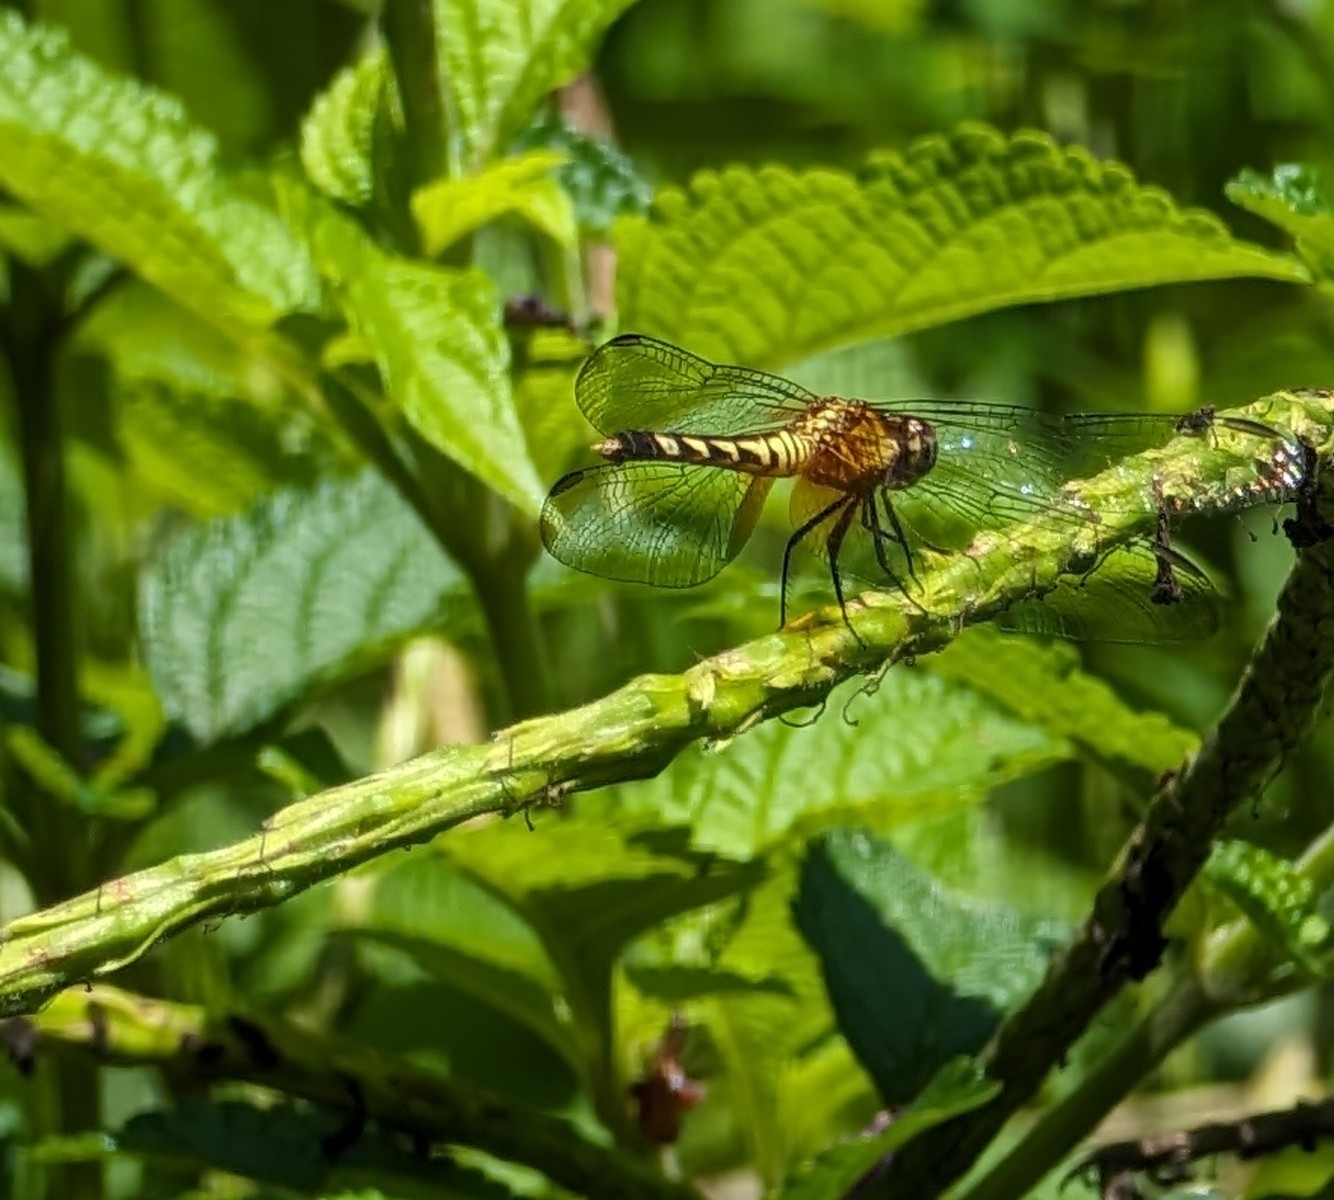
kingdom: Animalia
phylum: Arthropoda
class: Insecta
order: Odonata
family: Libellulidae
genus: Erythrodiplax
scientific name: Erythrodiplax fervida
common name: Red-mantled dragonlet
